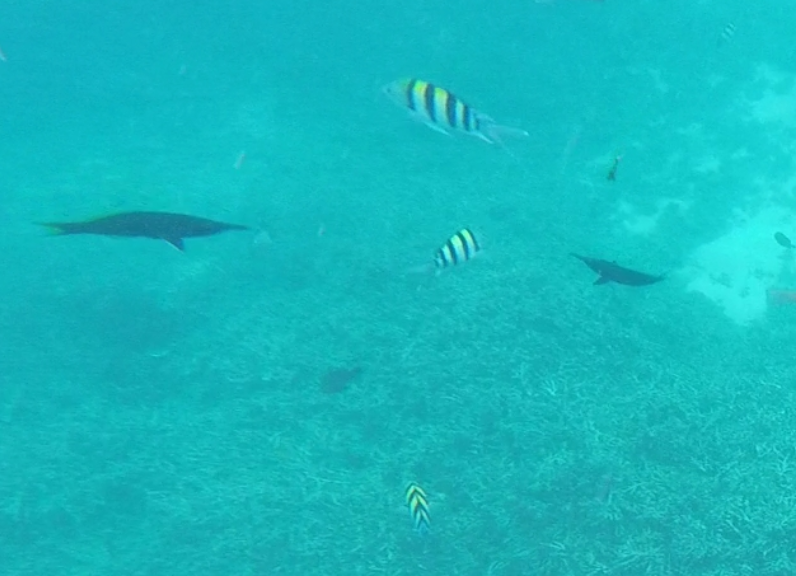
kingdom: Animalia
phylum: Chordata
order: Perciformes
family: Labridae
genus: Gomphosus
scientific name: Gomphosus caeruleus
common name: Bird wrasse
